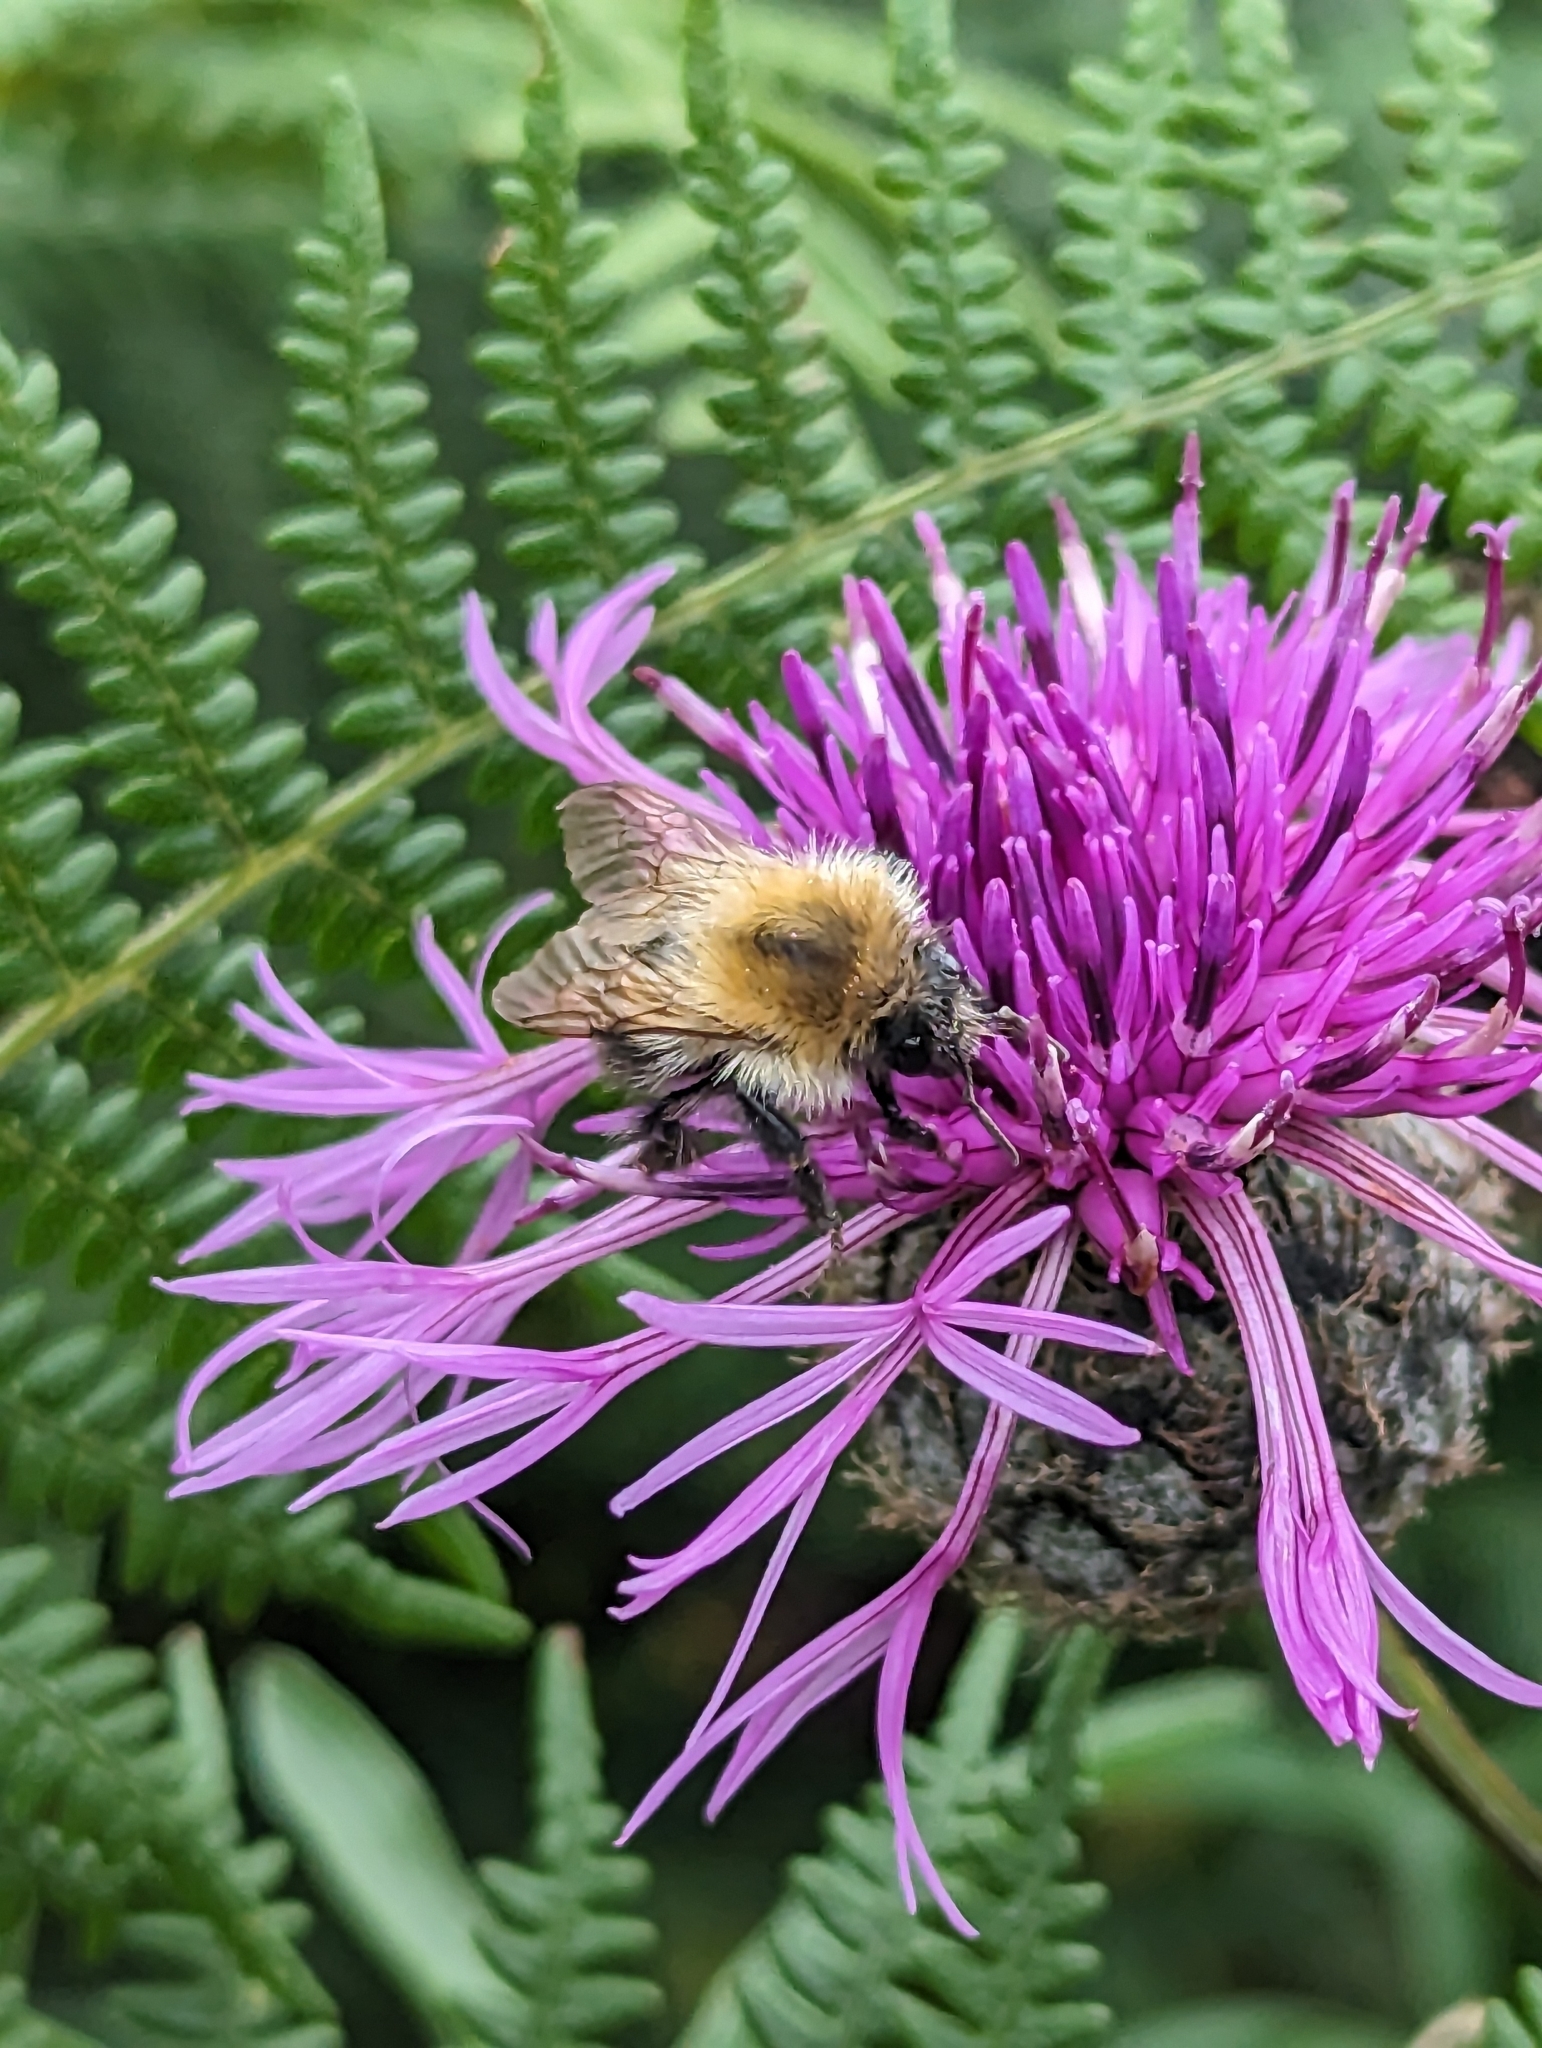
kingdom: Animalia
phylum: Arthropoda
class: Insecta
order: Hymenoptera
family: Apidae
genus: Bombus
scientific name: Bombus pascuorum
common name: Common carder bee
